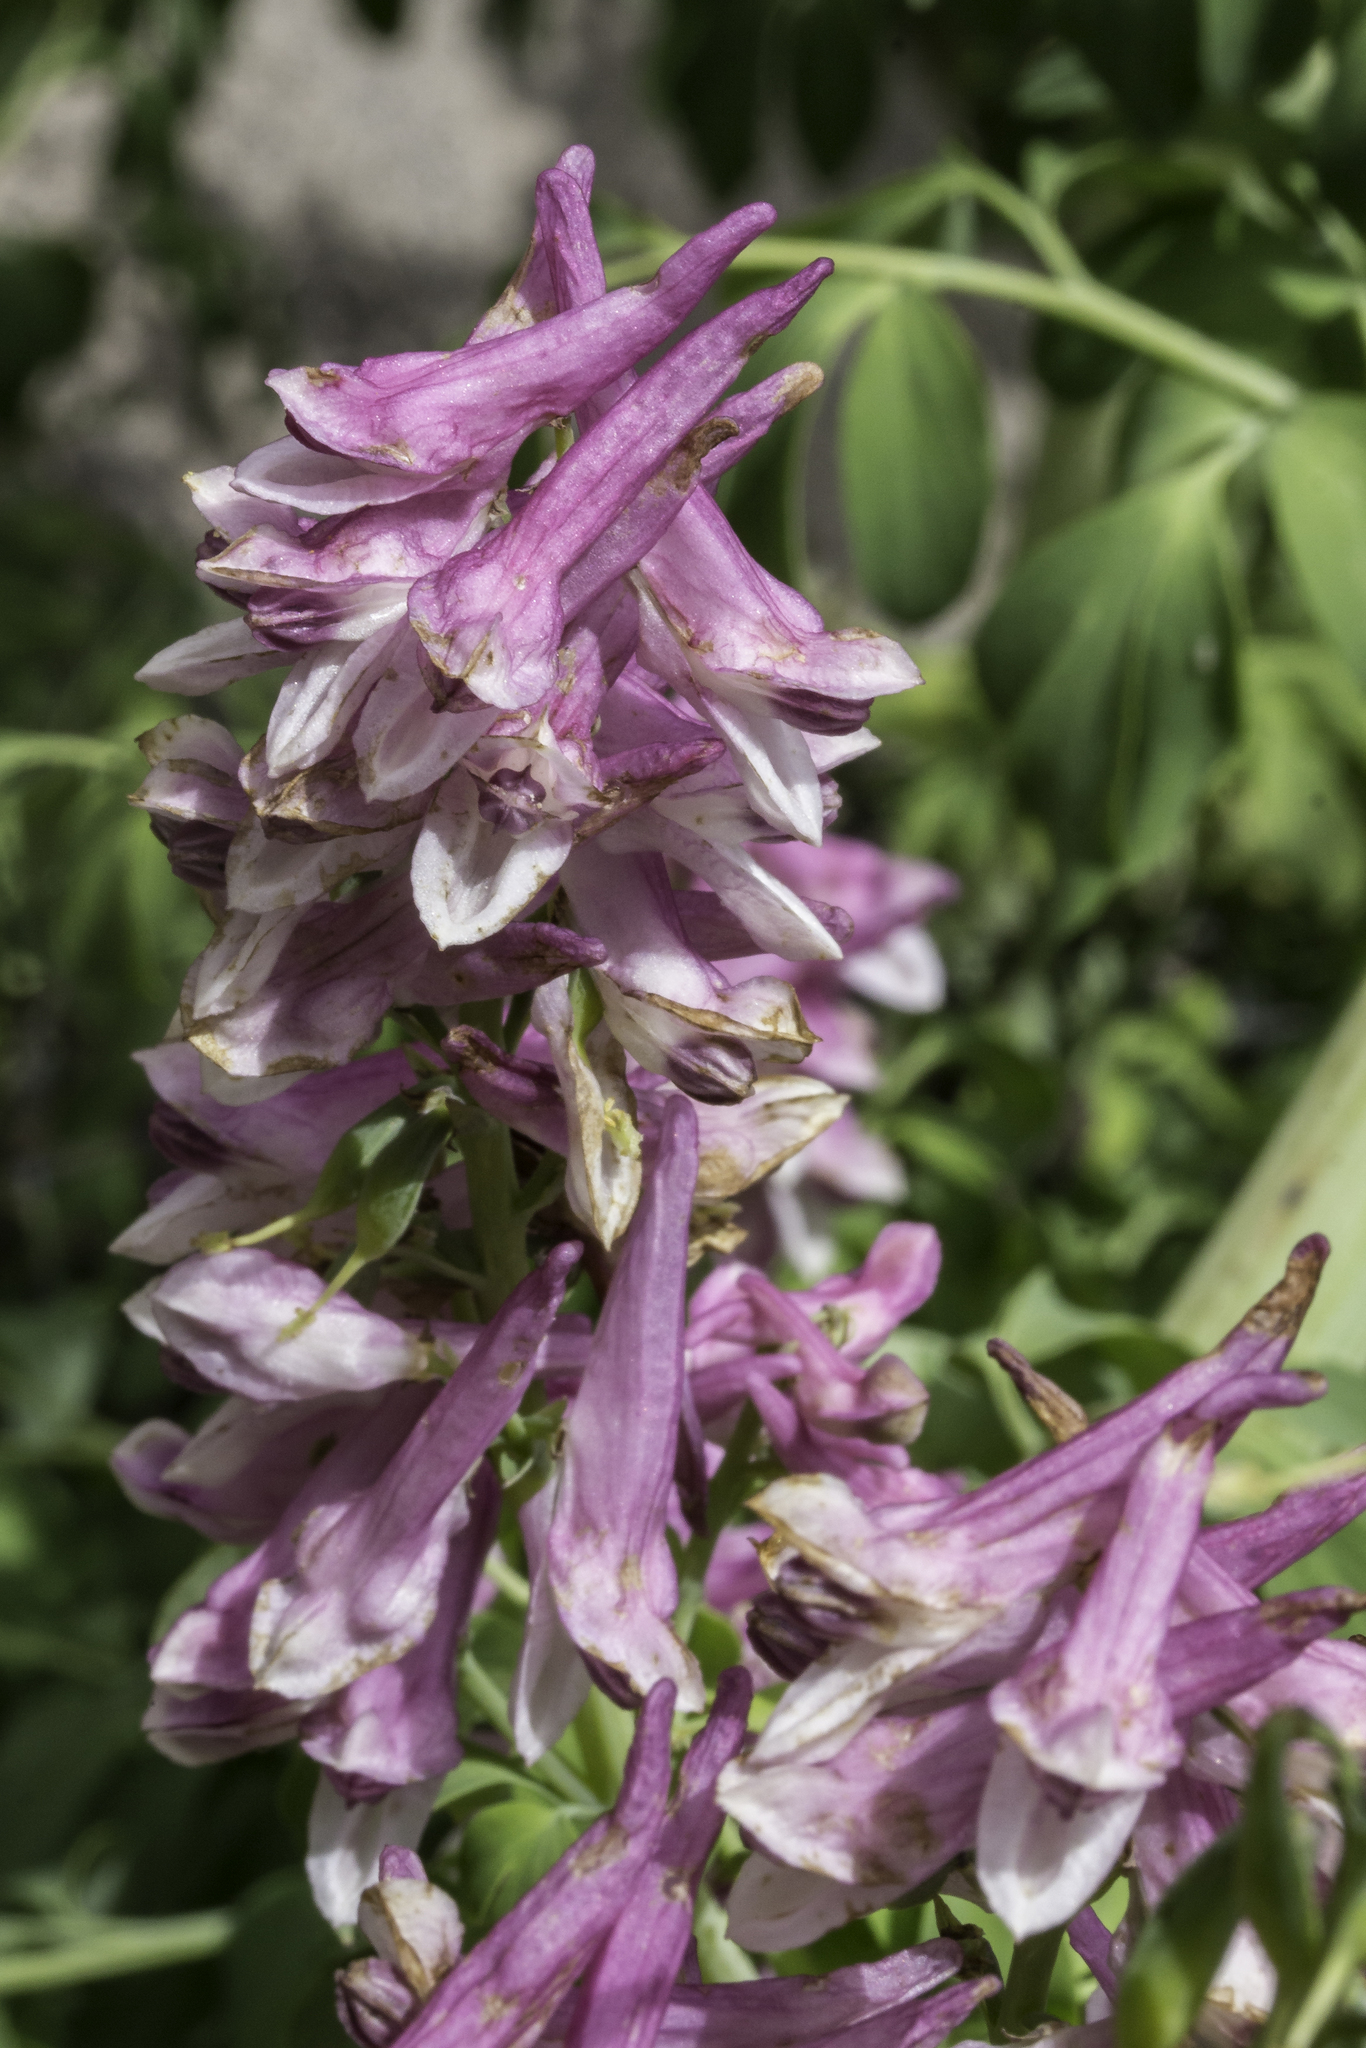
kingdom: Plantae
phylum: Tracheophyta
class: Magnoliopsida
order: Ranunculales
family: Papaveraceae
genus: Corydalis
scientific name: Corydalis caseana
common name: Fitweed
